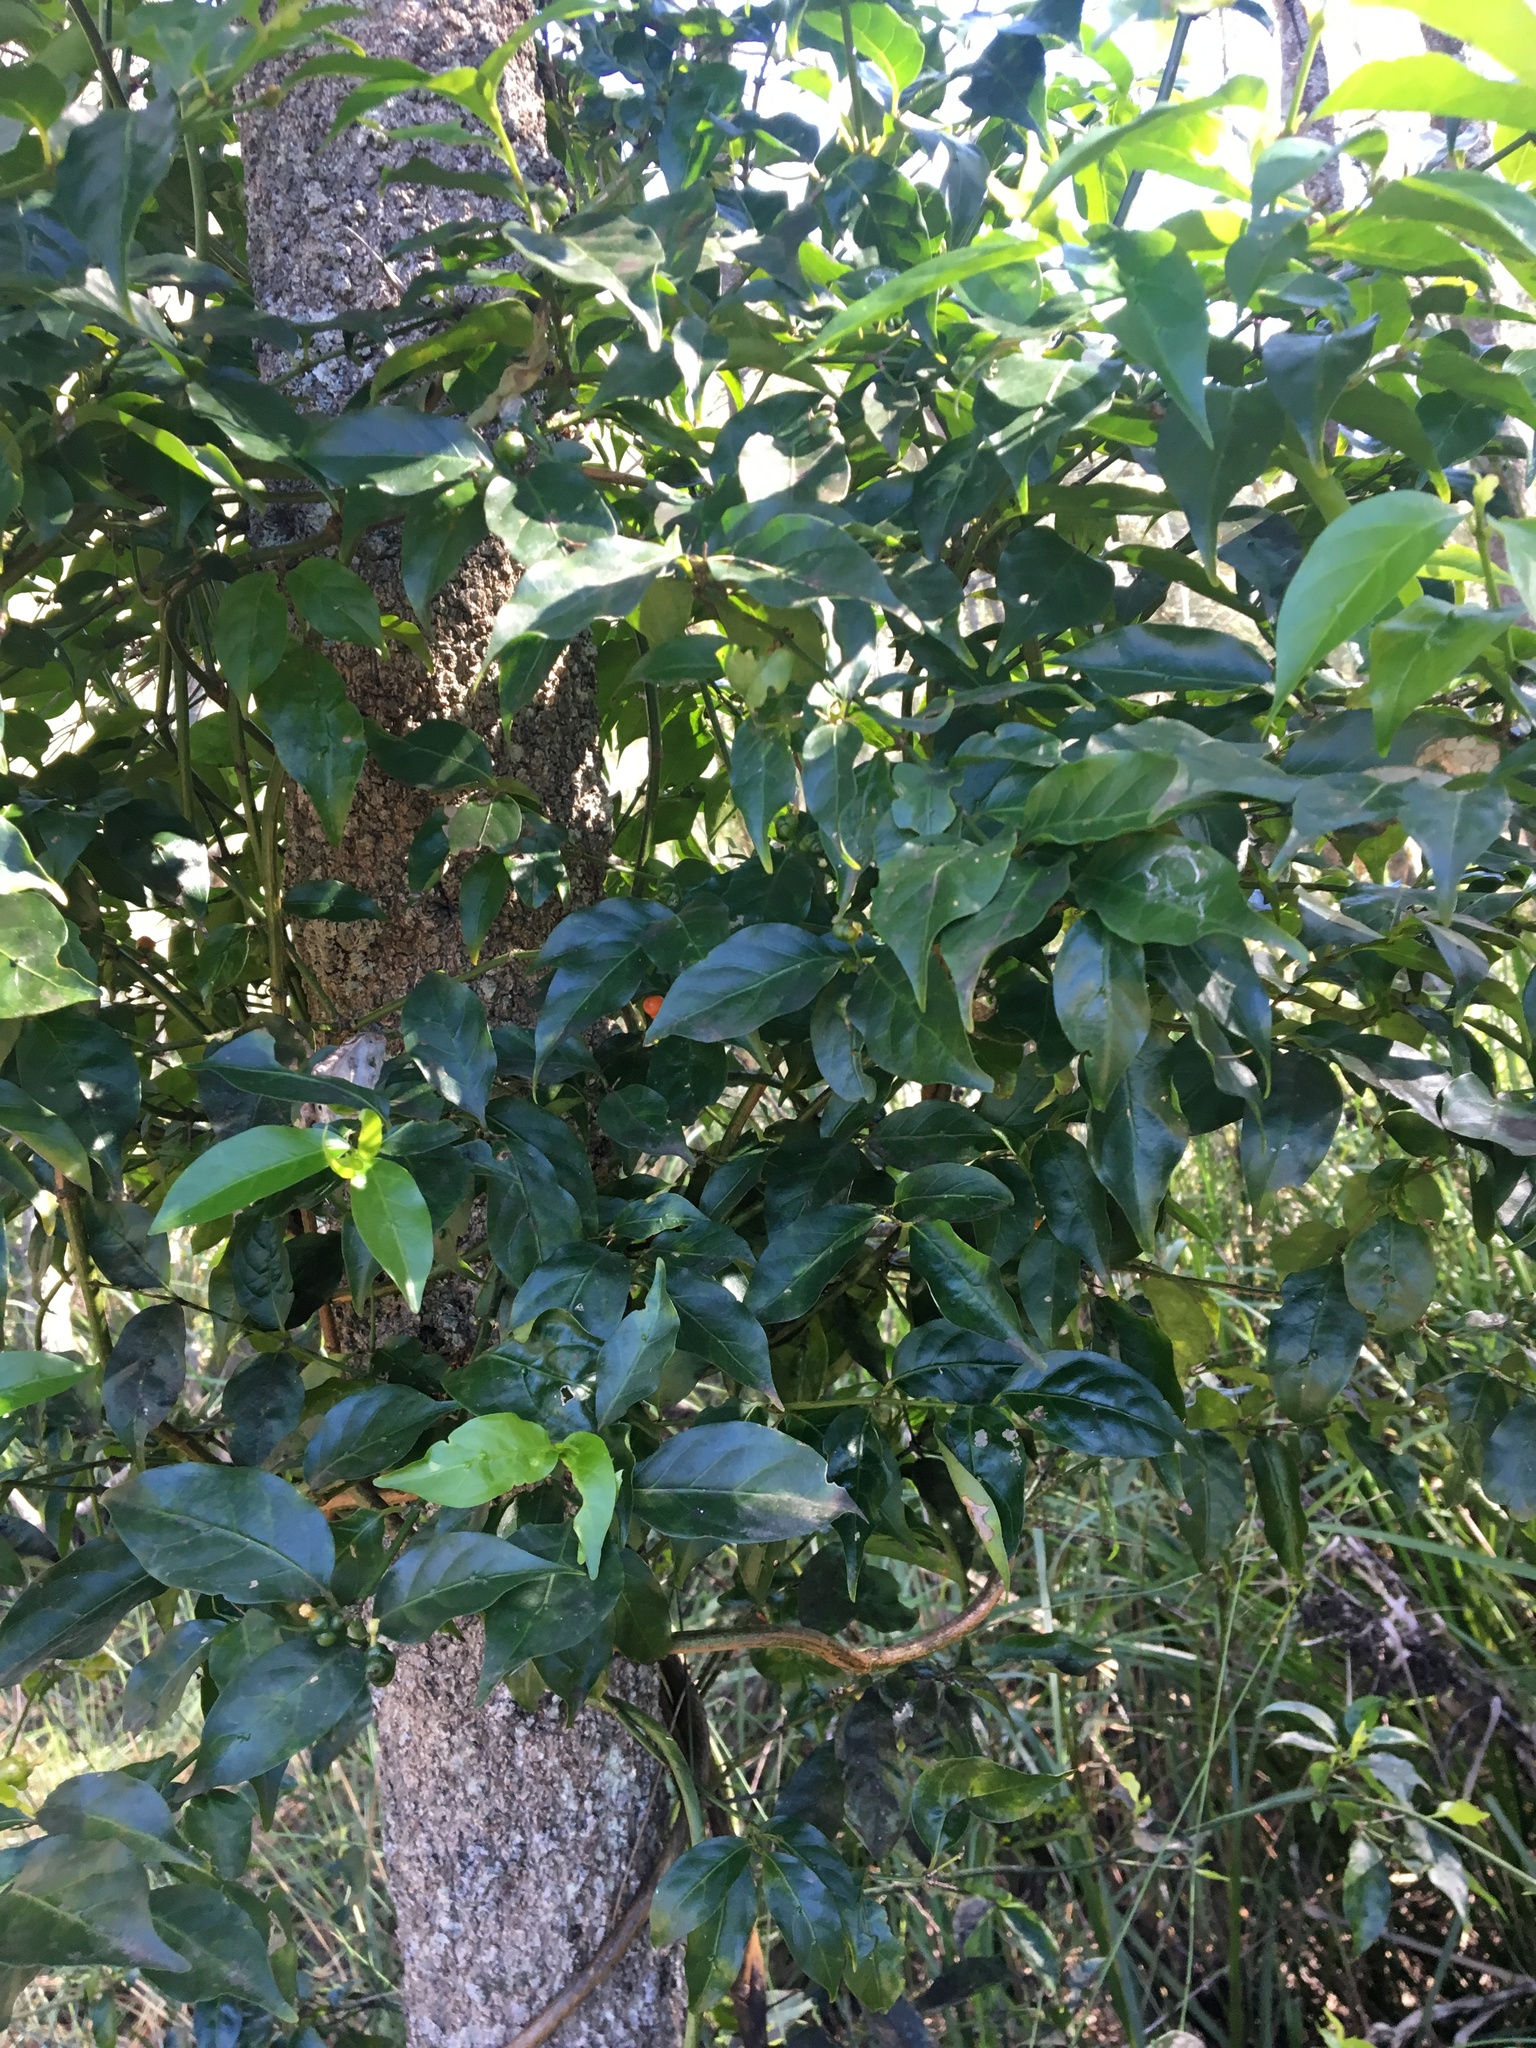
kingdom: Plantae
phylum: Tracheophyta
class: Magnoliopsida
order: Gentianales
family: Rubiaceae
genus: Gynochthodes
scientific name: Gynochthodes jasminoides
